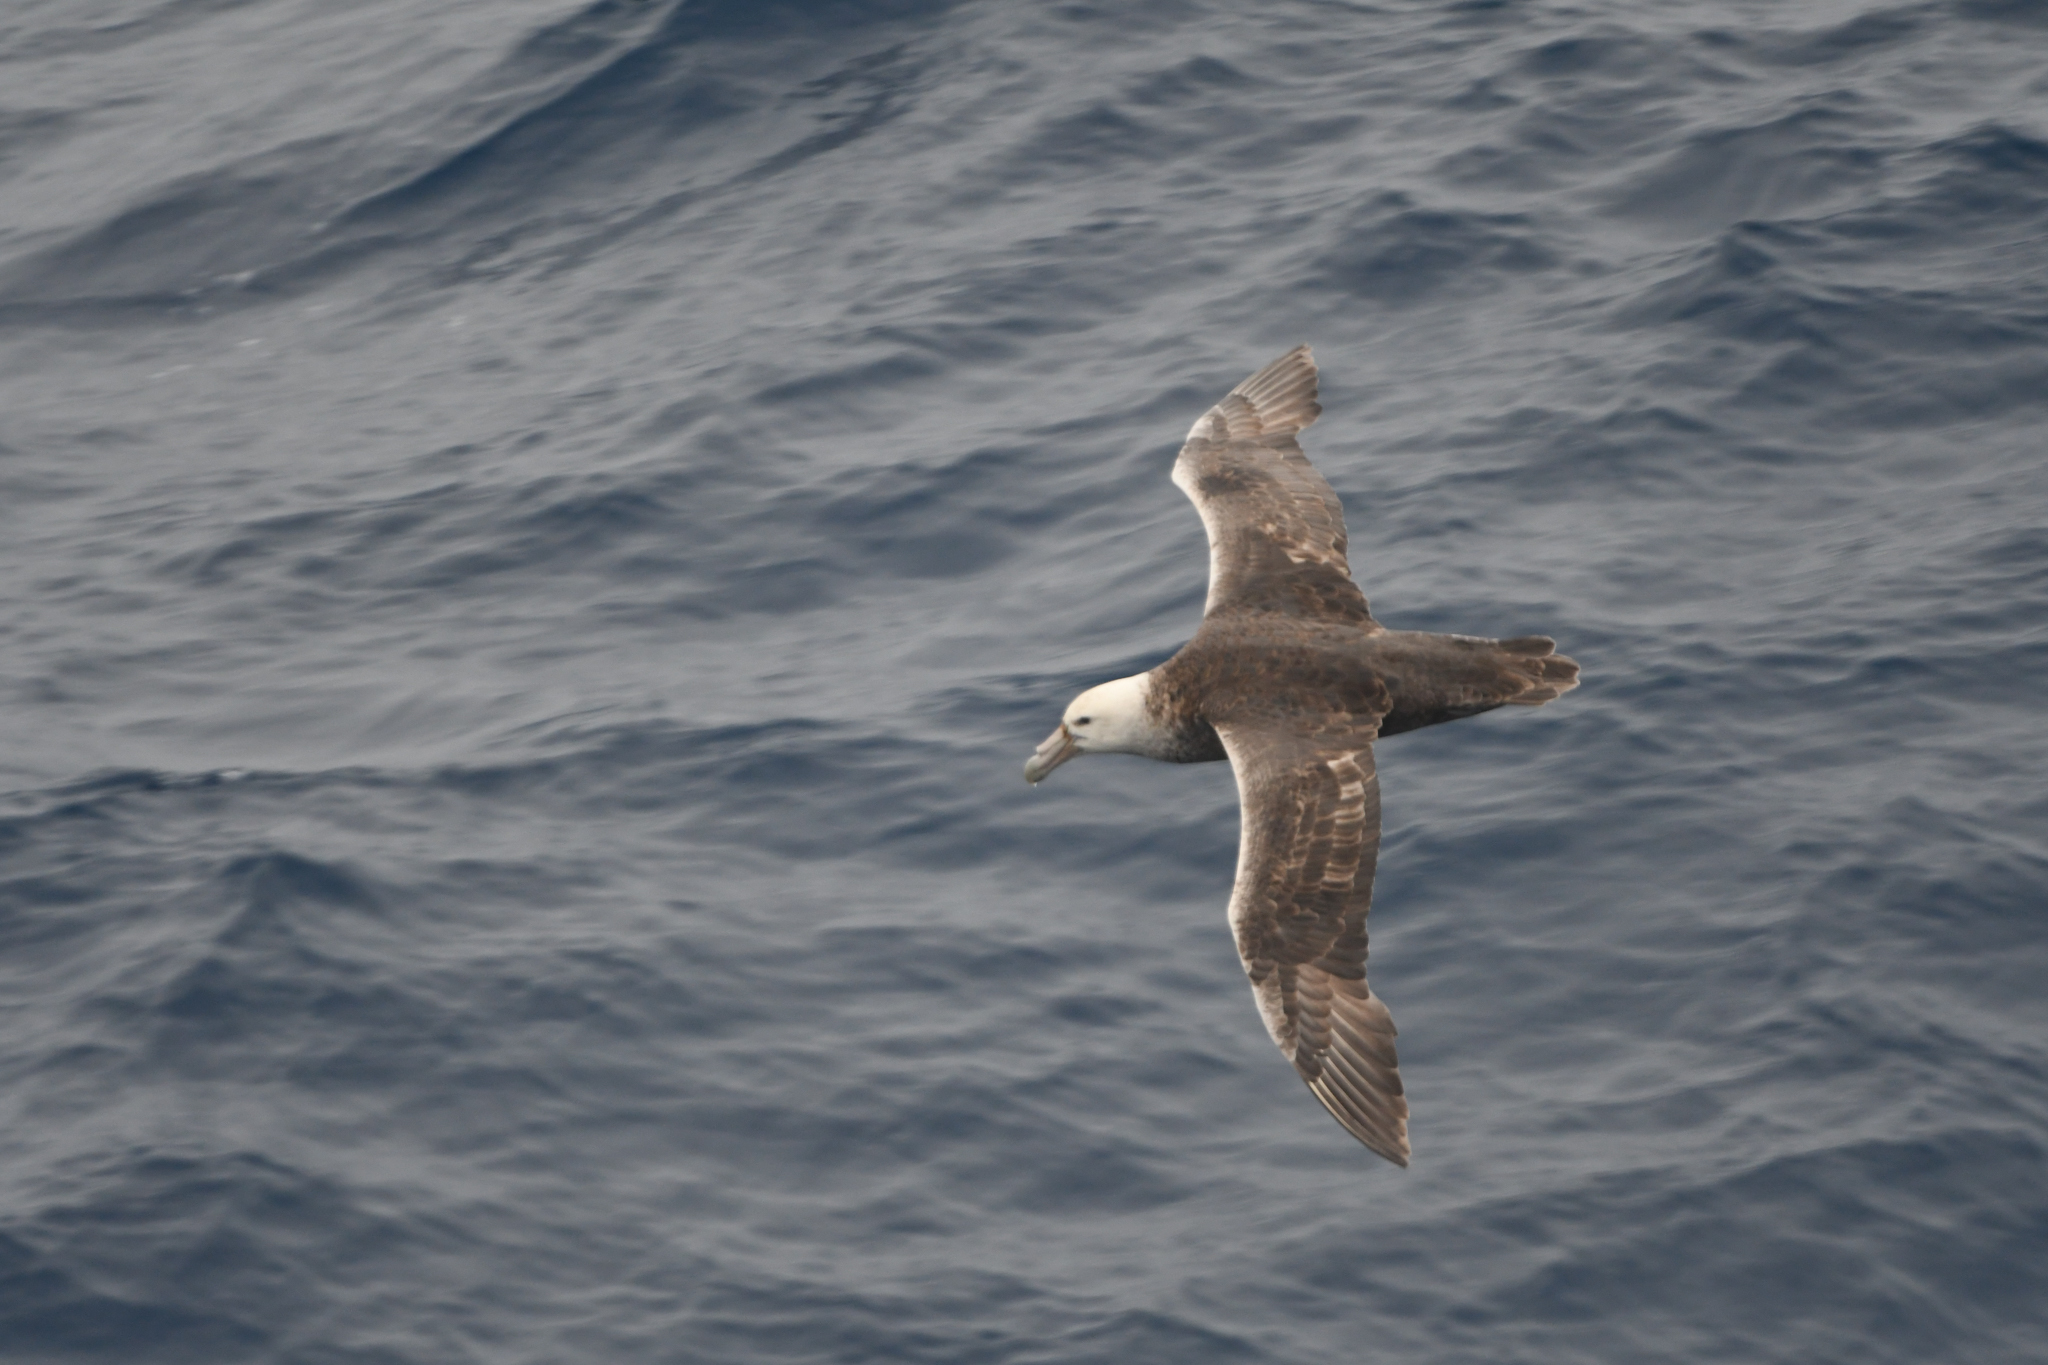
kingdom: Animalia
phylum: Chordata
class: Aves
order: Procellariiformes
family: Procellariidae
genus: Macronectes
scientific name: Macronectes giganteus
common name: Southern giant petrel
